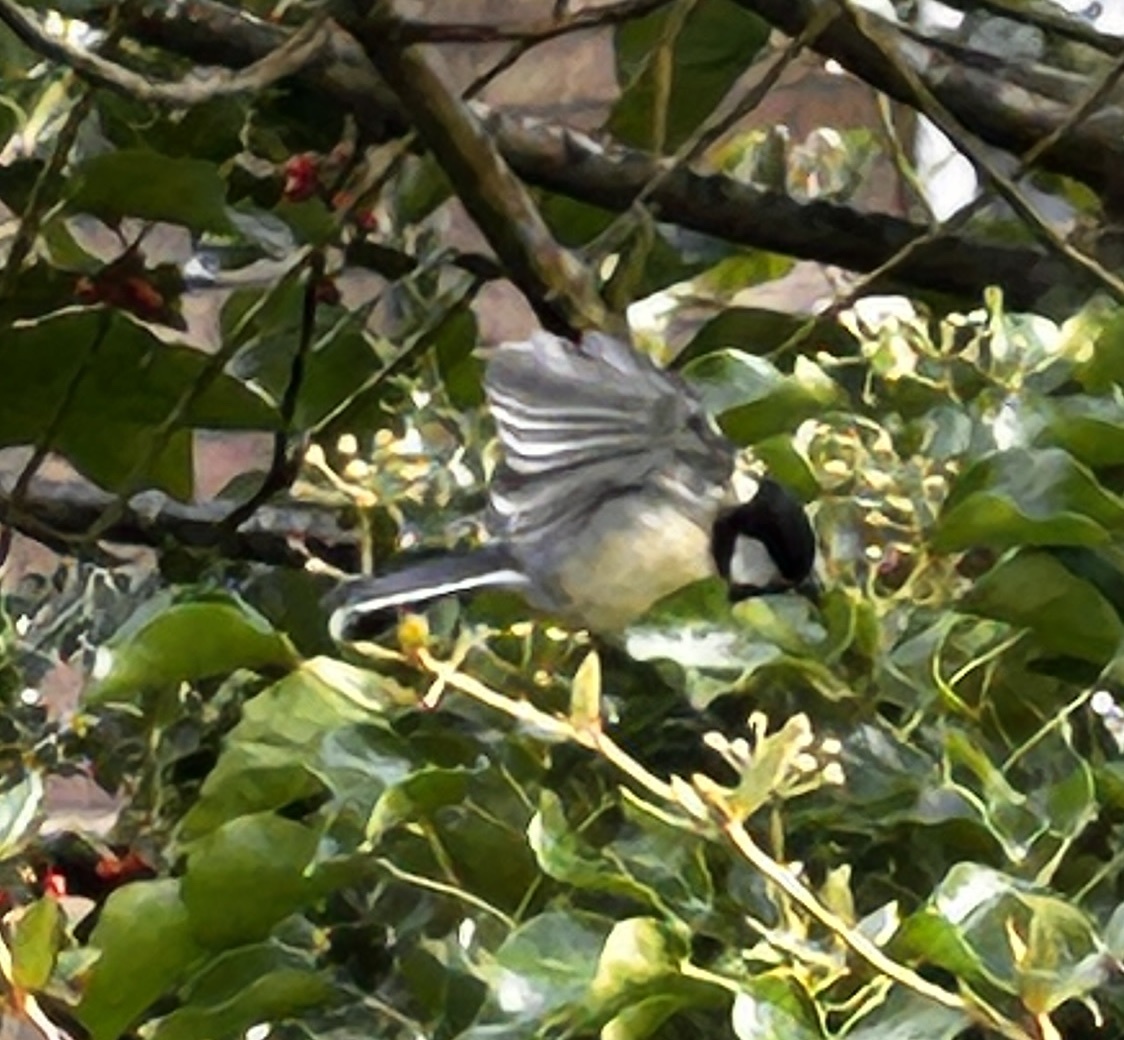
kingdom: Animalia
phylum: Chordata
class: Aves
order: Passeriformes
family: Paridae
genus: Parus
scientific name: Parus major
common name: Great tit
